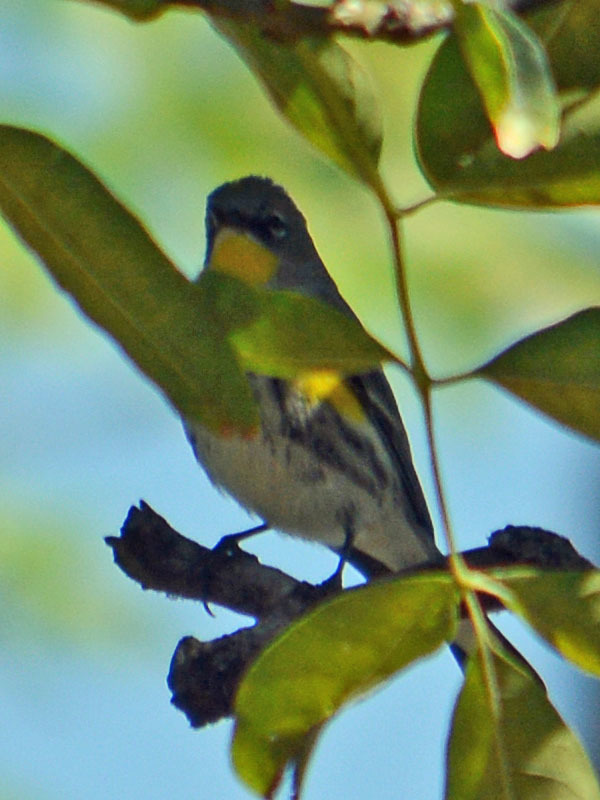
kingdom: Animalia
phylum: Chordata
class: Aves
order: Passeriformes
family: Parulidae
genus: Setophaga
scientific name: Setophaga auduboni
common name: Audubon's warbler
